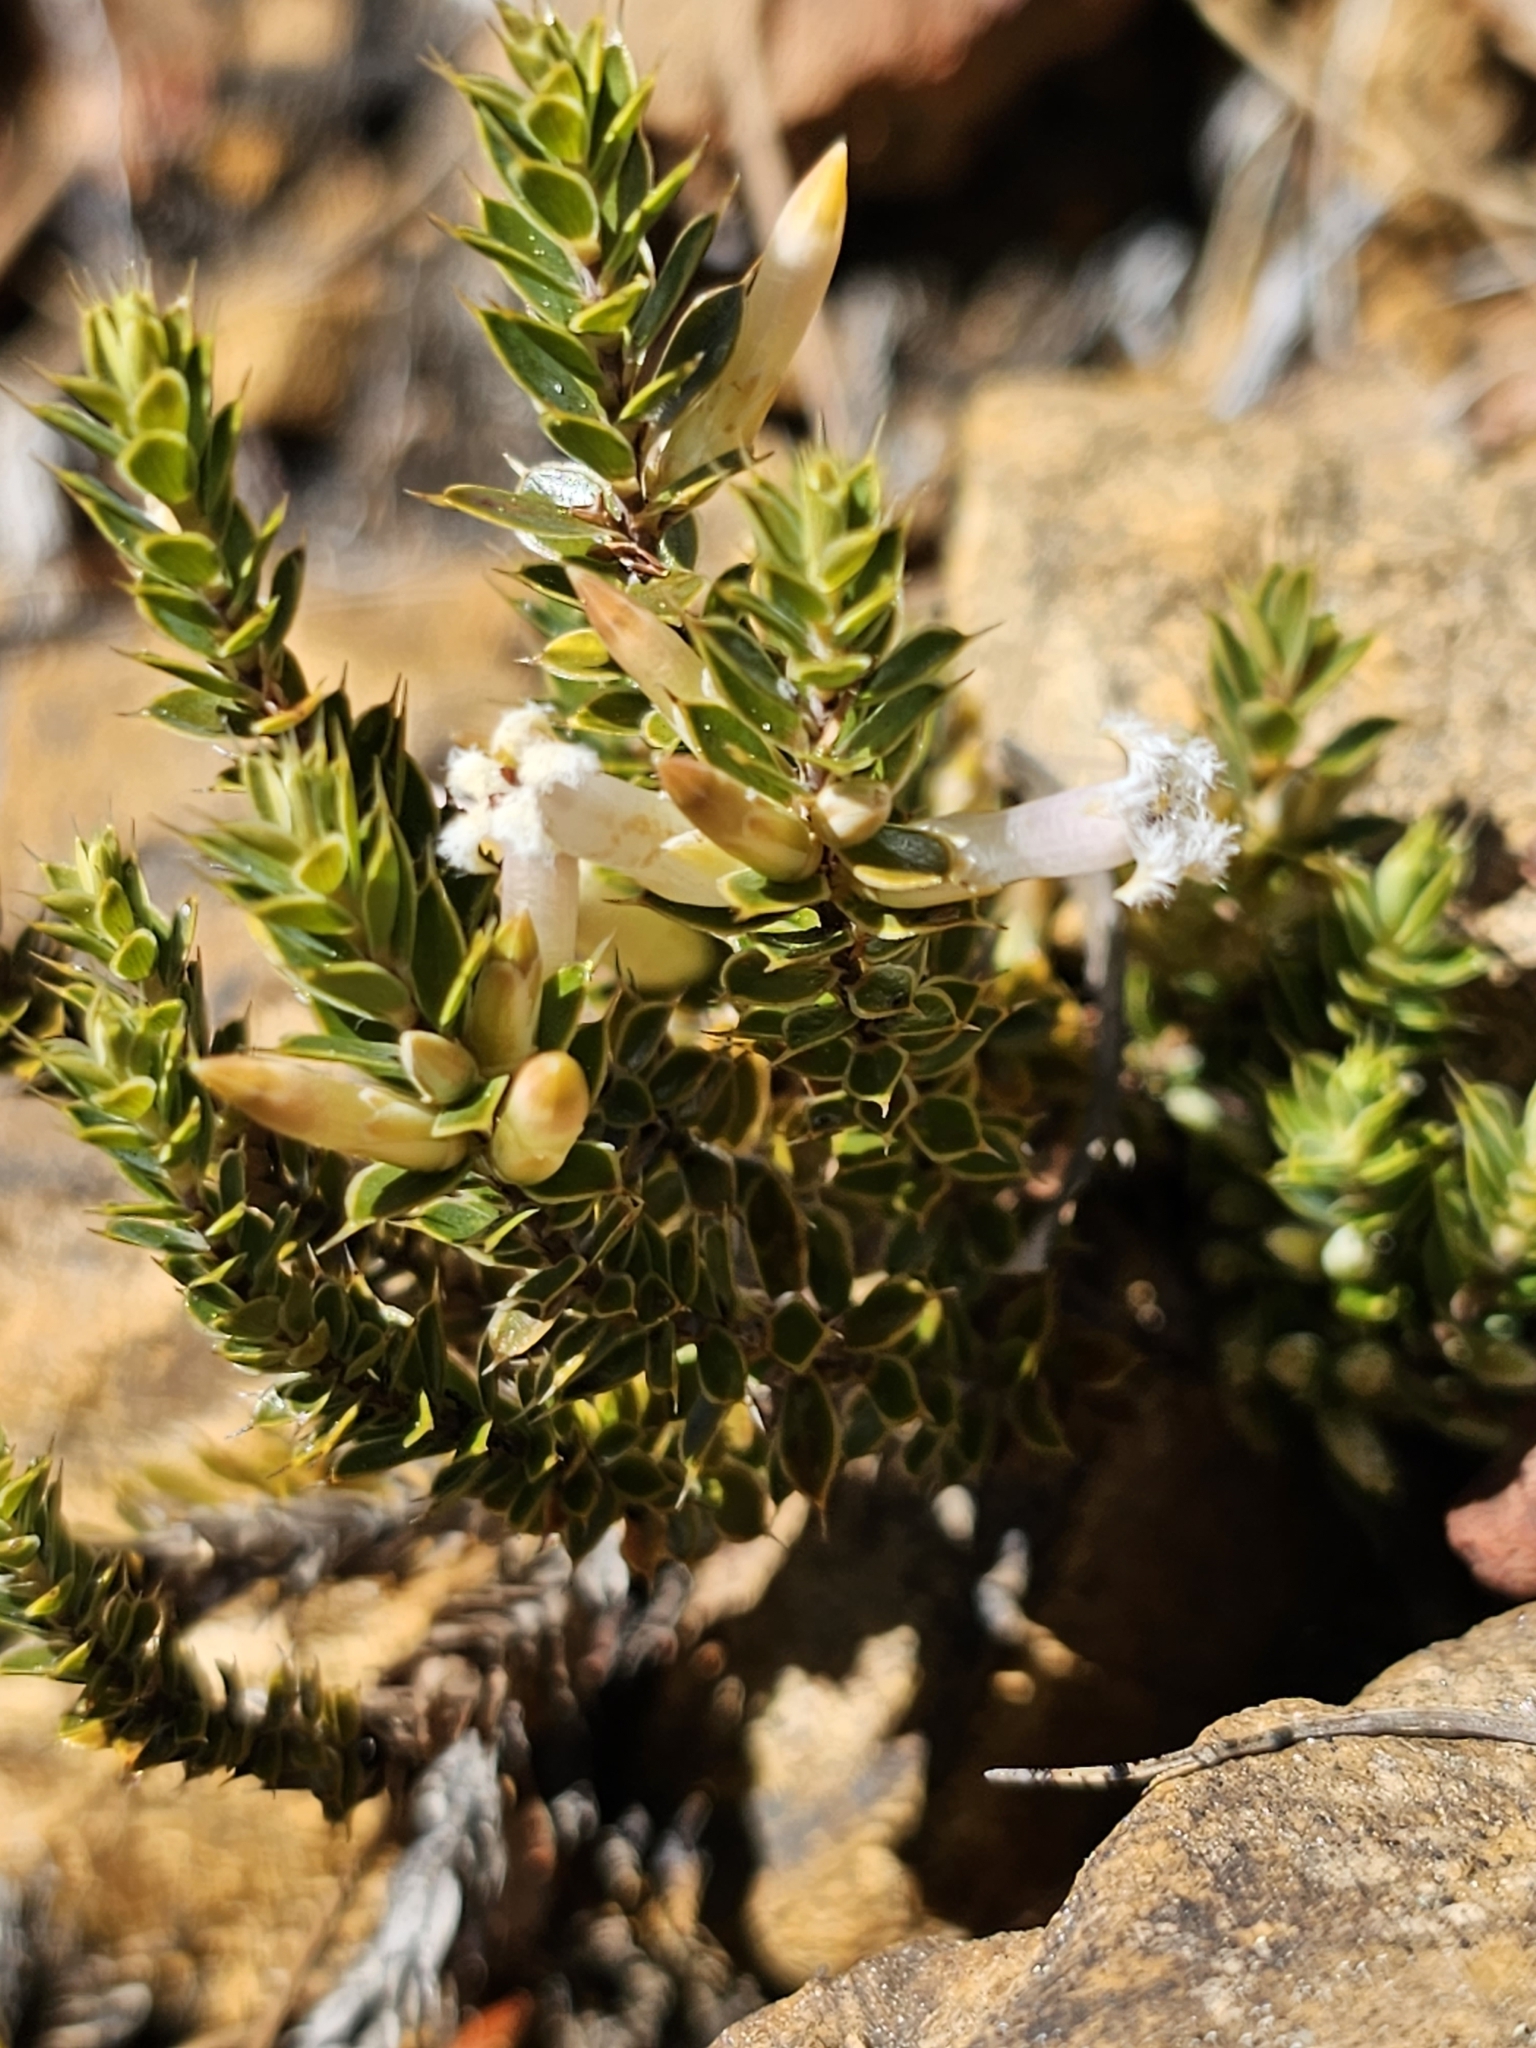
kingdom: Plantae
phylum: Tracheophyta
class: Magnoliopsida
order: Ericales
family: Ericaceae
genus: Styphelia
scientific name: Styphelia nesophila
